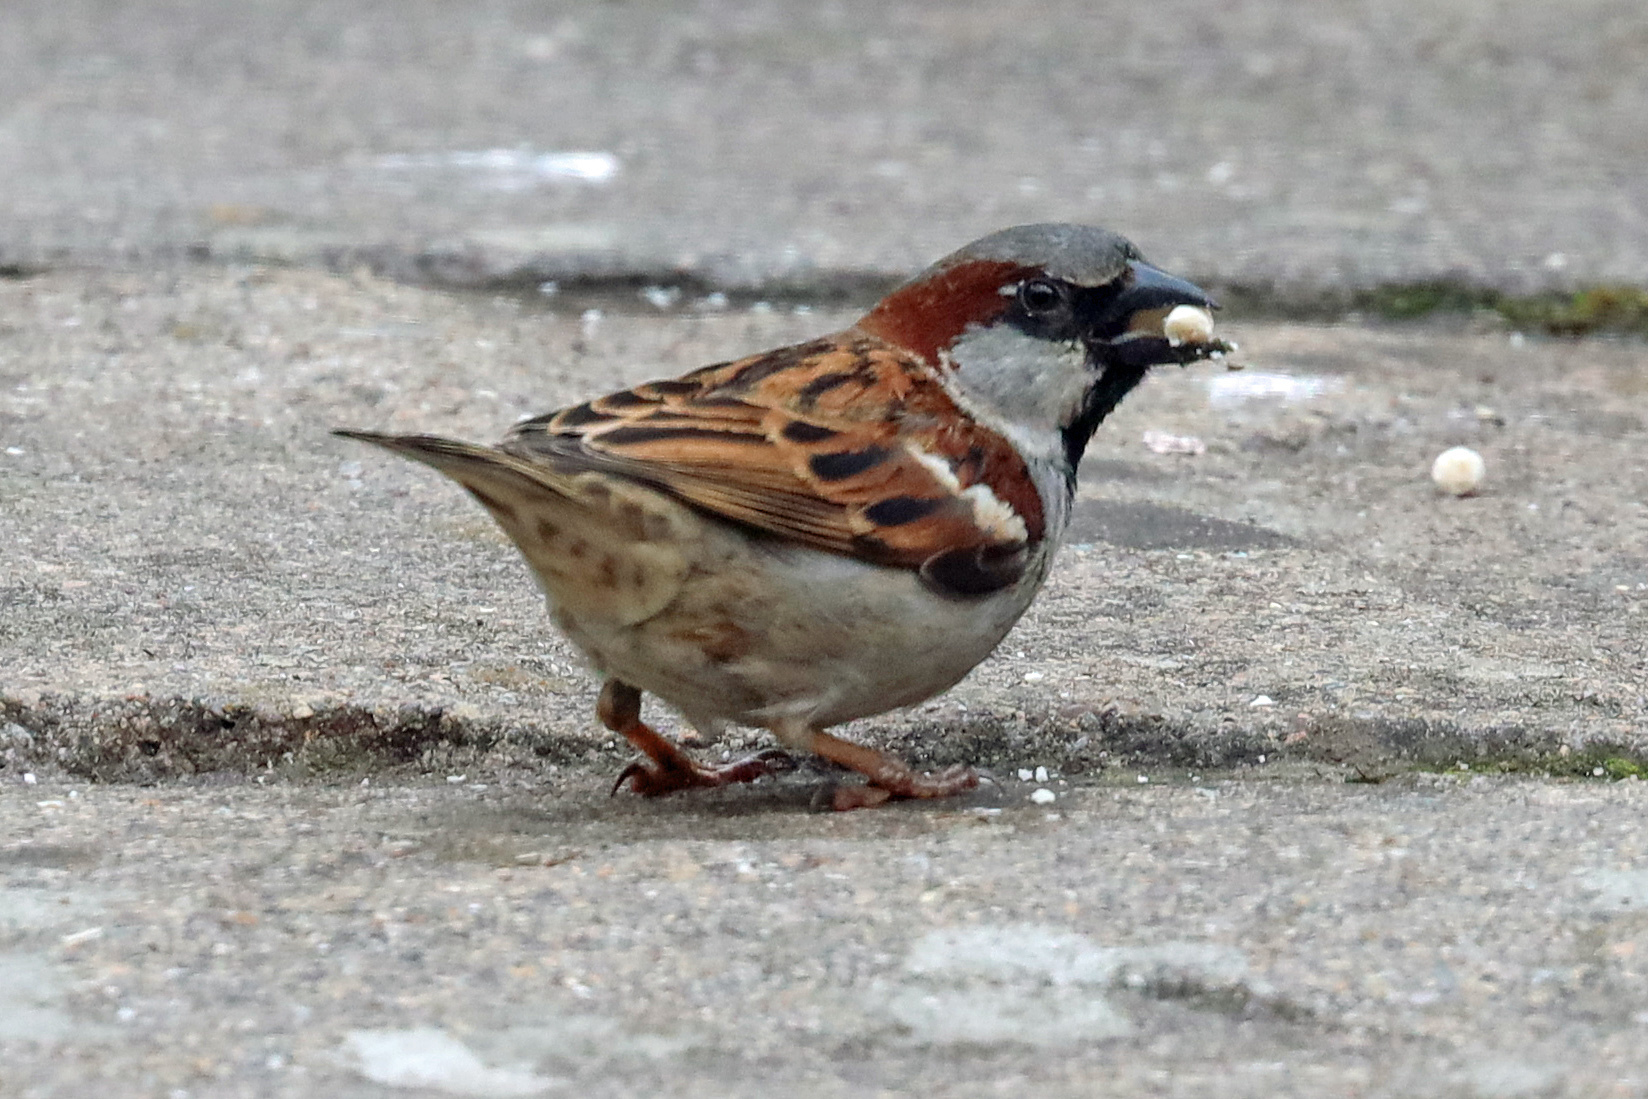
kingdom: Animalia
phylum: Chordata
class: Aves
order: Passeriformes
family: Passeridae
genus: Passer
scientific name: Passer domesticus
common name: House sparrow
